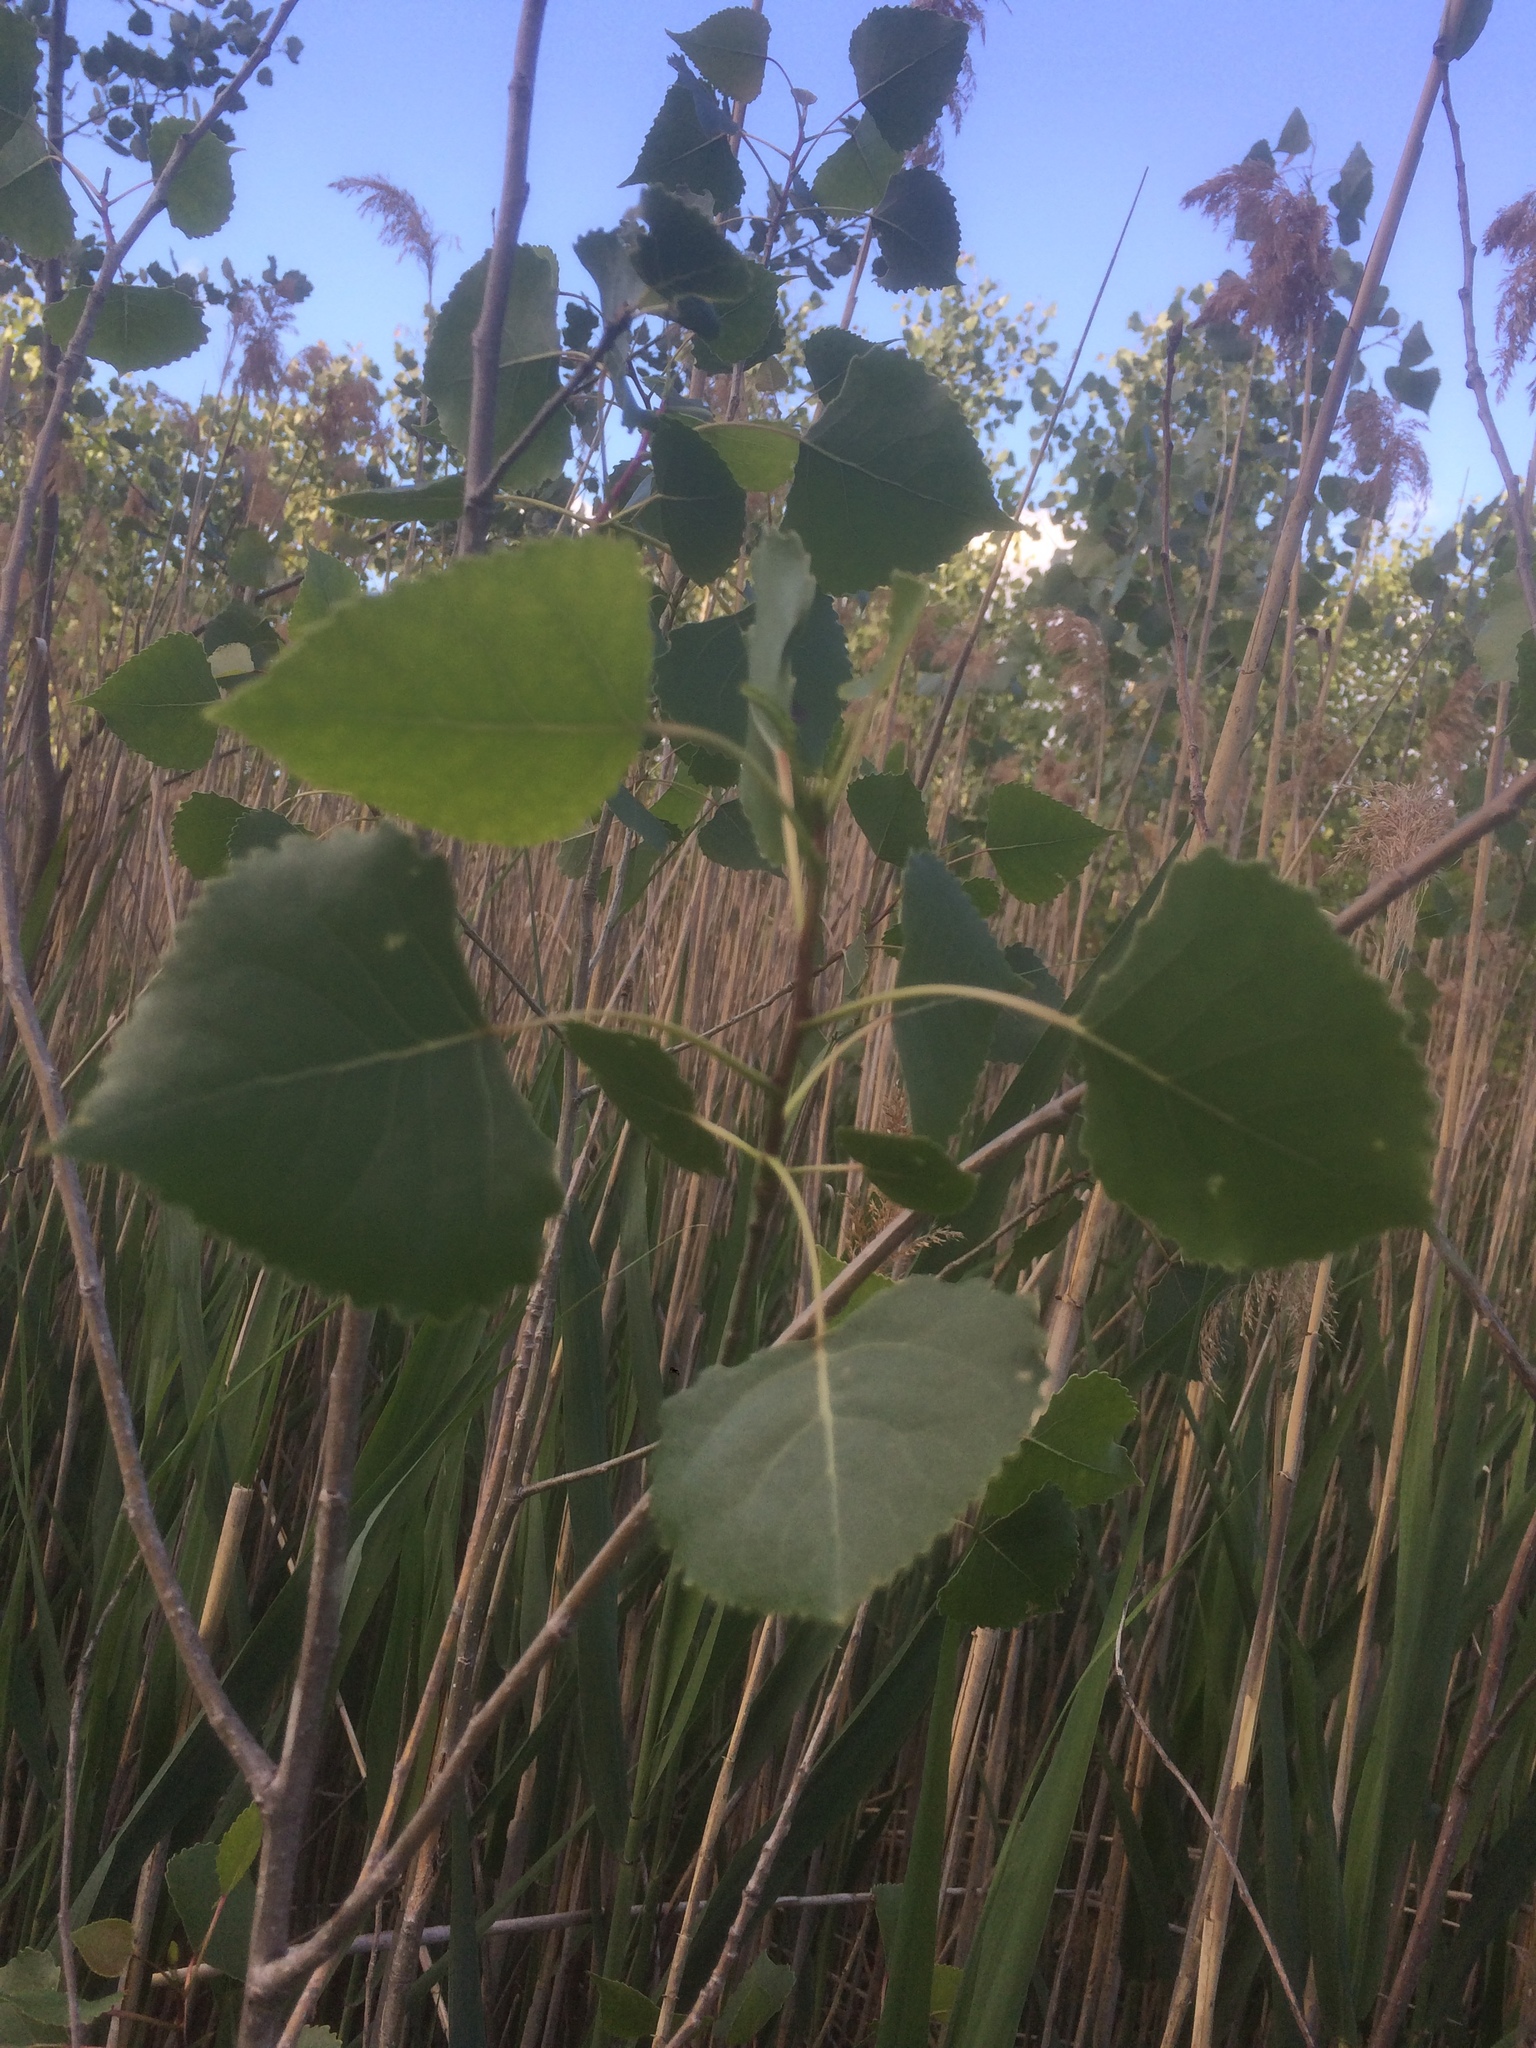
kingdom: Plantae
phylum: Tracheophyta
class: Magnoliopsida
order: Malpighiales
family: Salicaceae
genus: Populus
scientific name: Populus deltoides
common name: Eastern cottonwood
